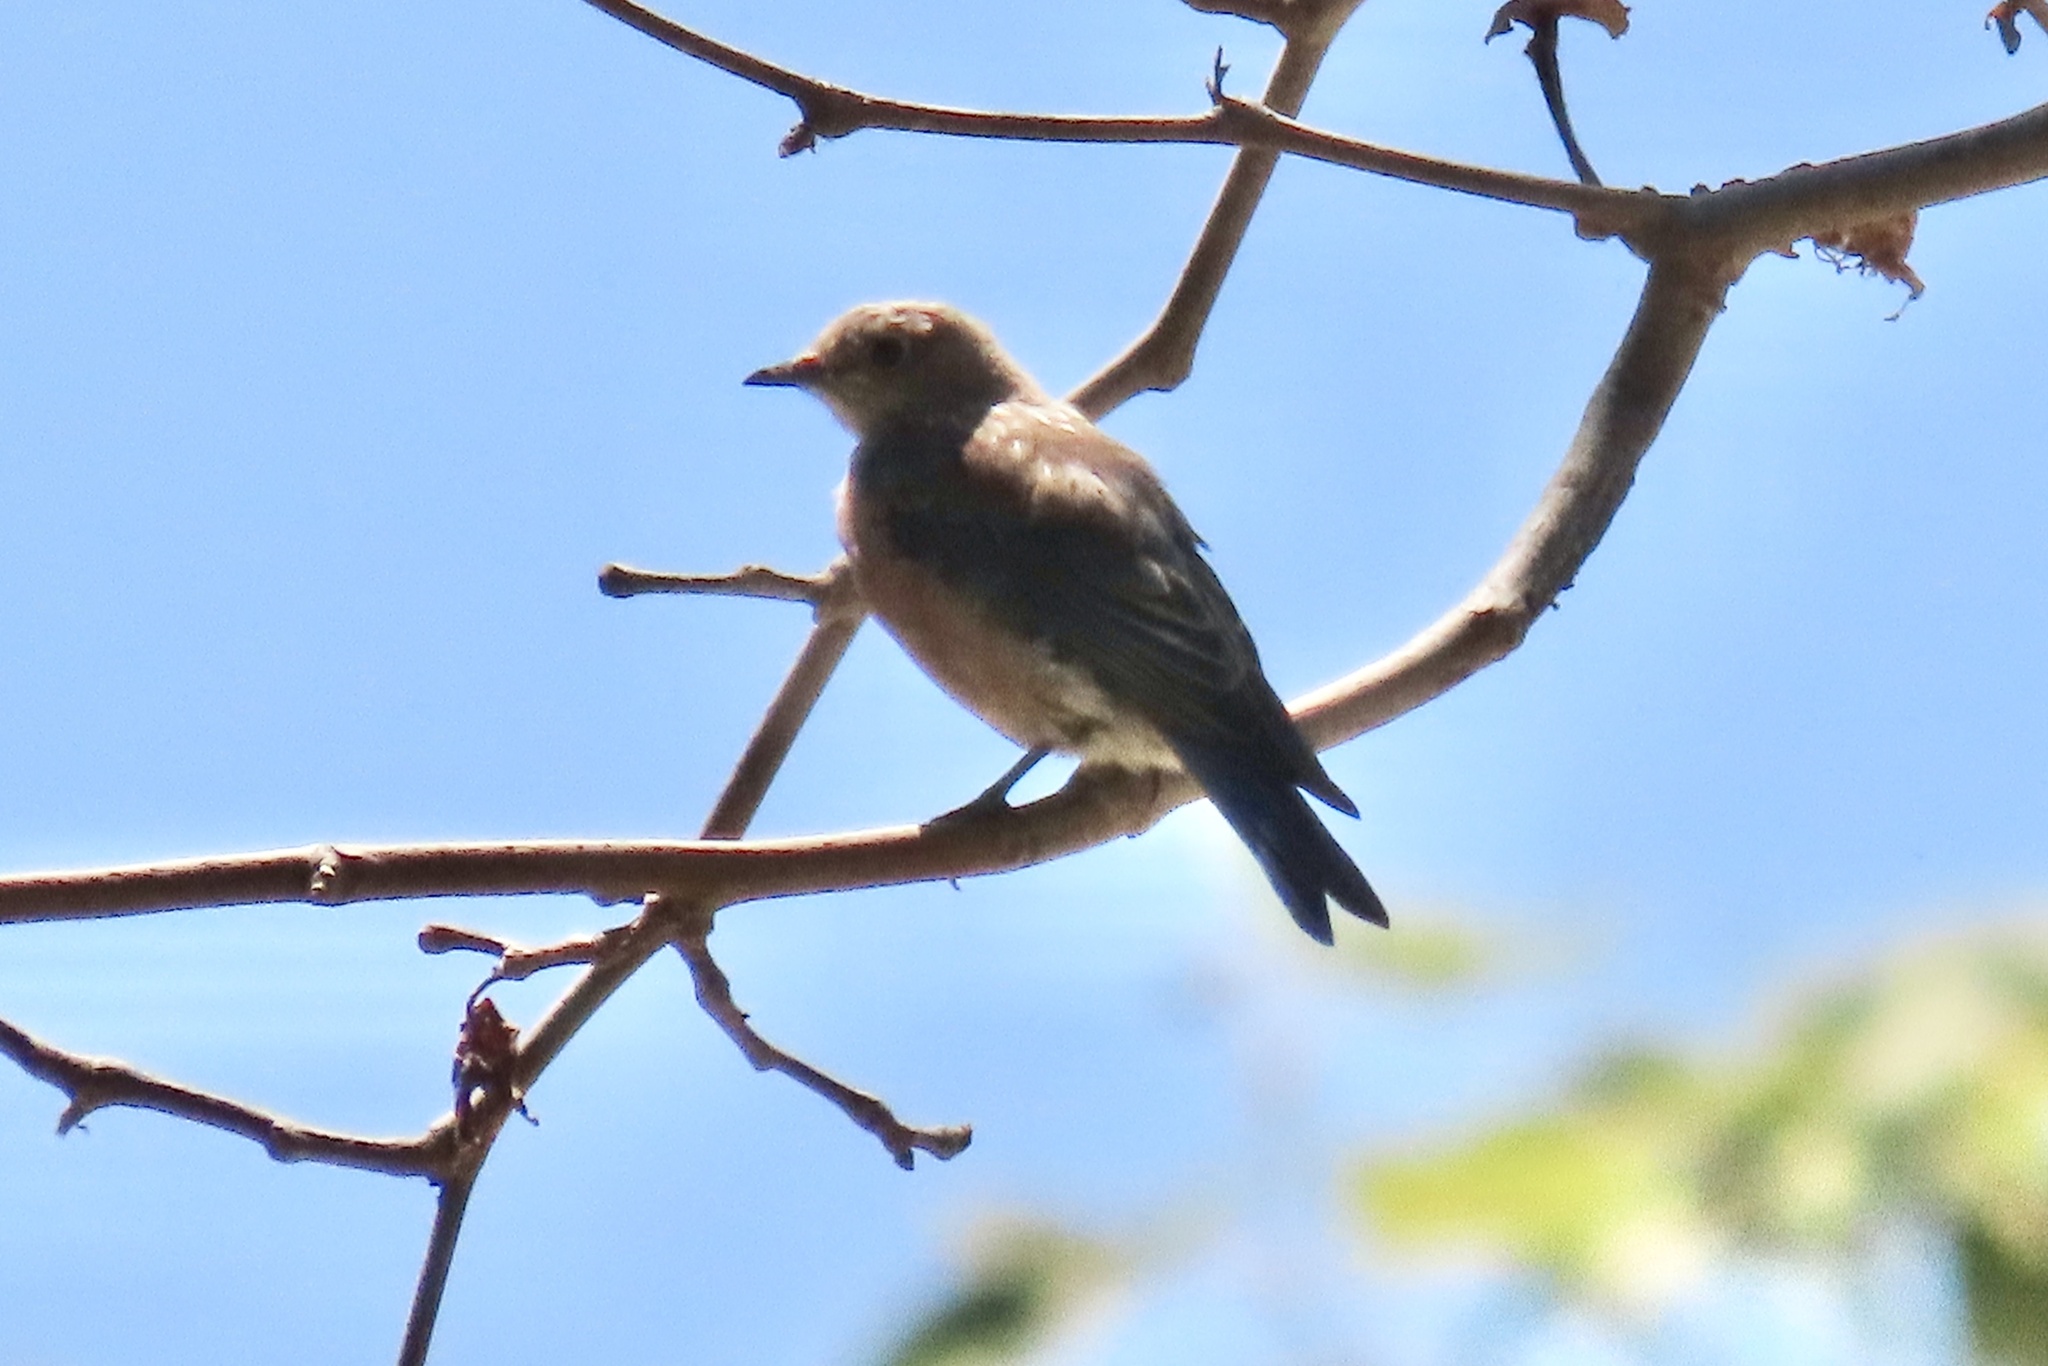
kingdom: Animalia
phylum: Chordata
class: Aves
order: Passeriformes
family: Turdidae
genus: Sialia
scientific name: Sialia mexicana
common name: Western bluebird
